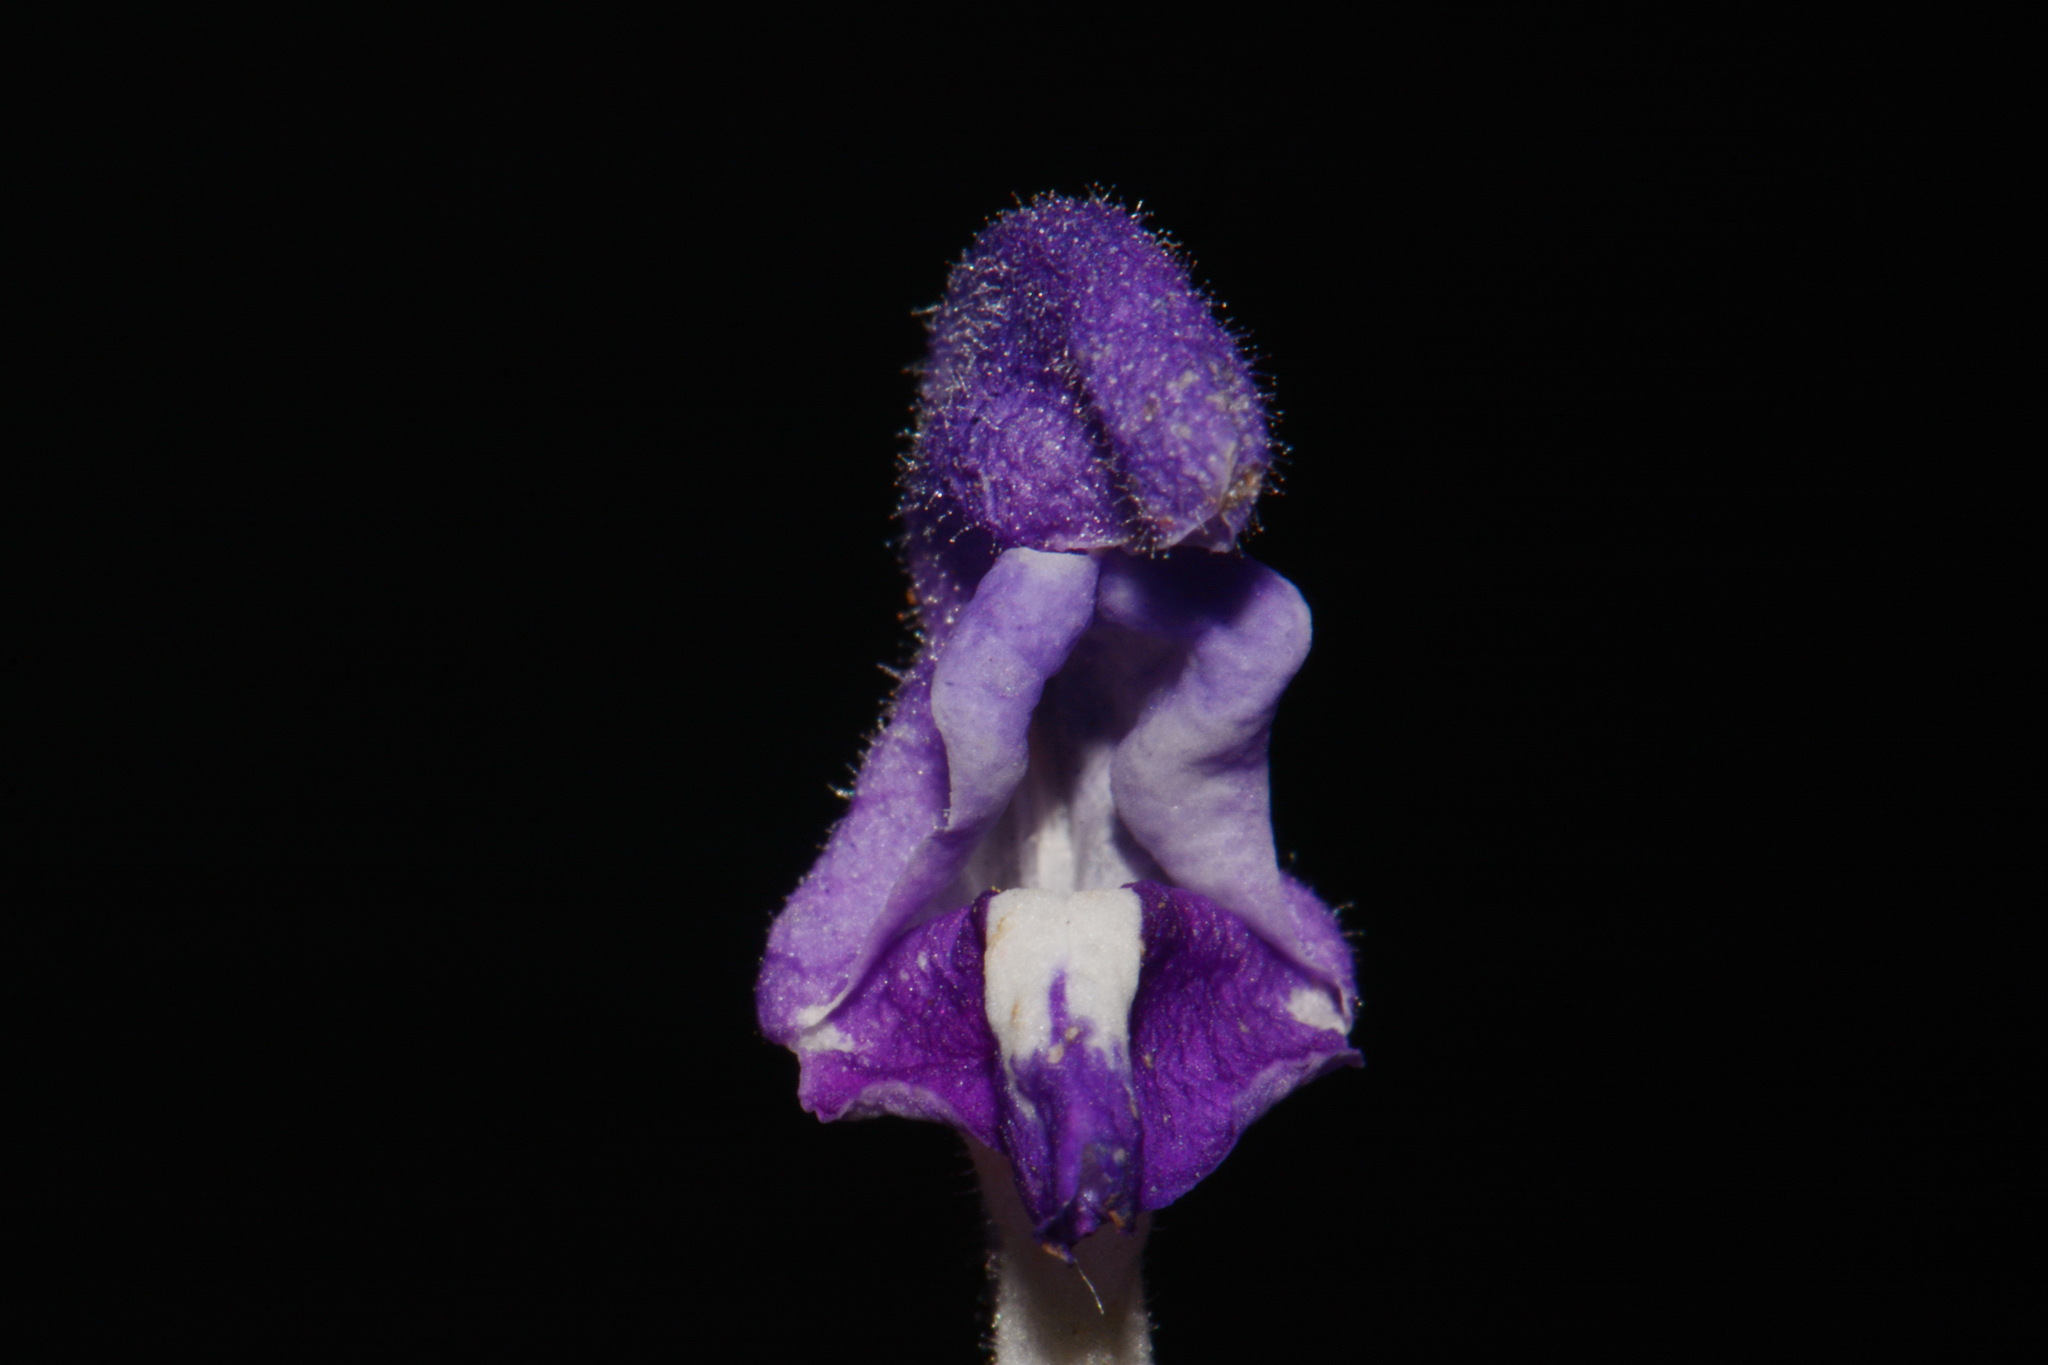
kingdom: Plantae
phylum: Tracheophyta
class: Magnoliopsida
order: Lamiales
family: Lamiaceae
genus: Scutellaria
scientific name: Scutellaria alabamensis
